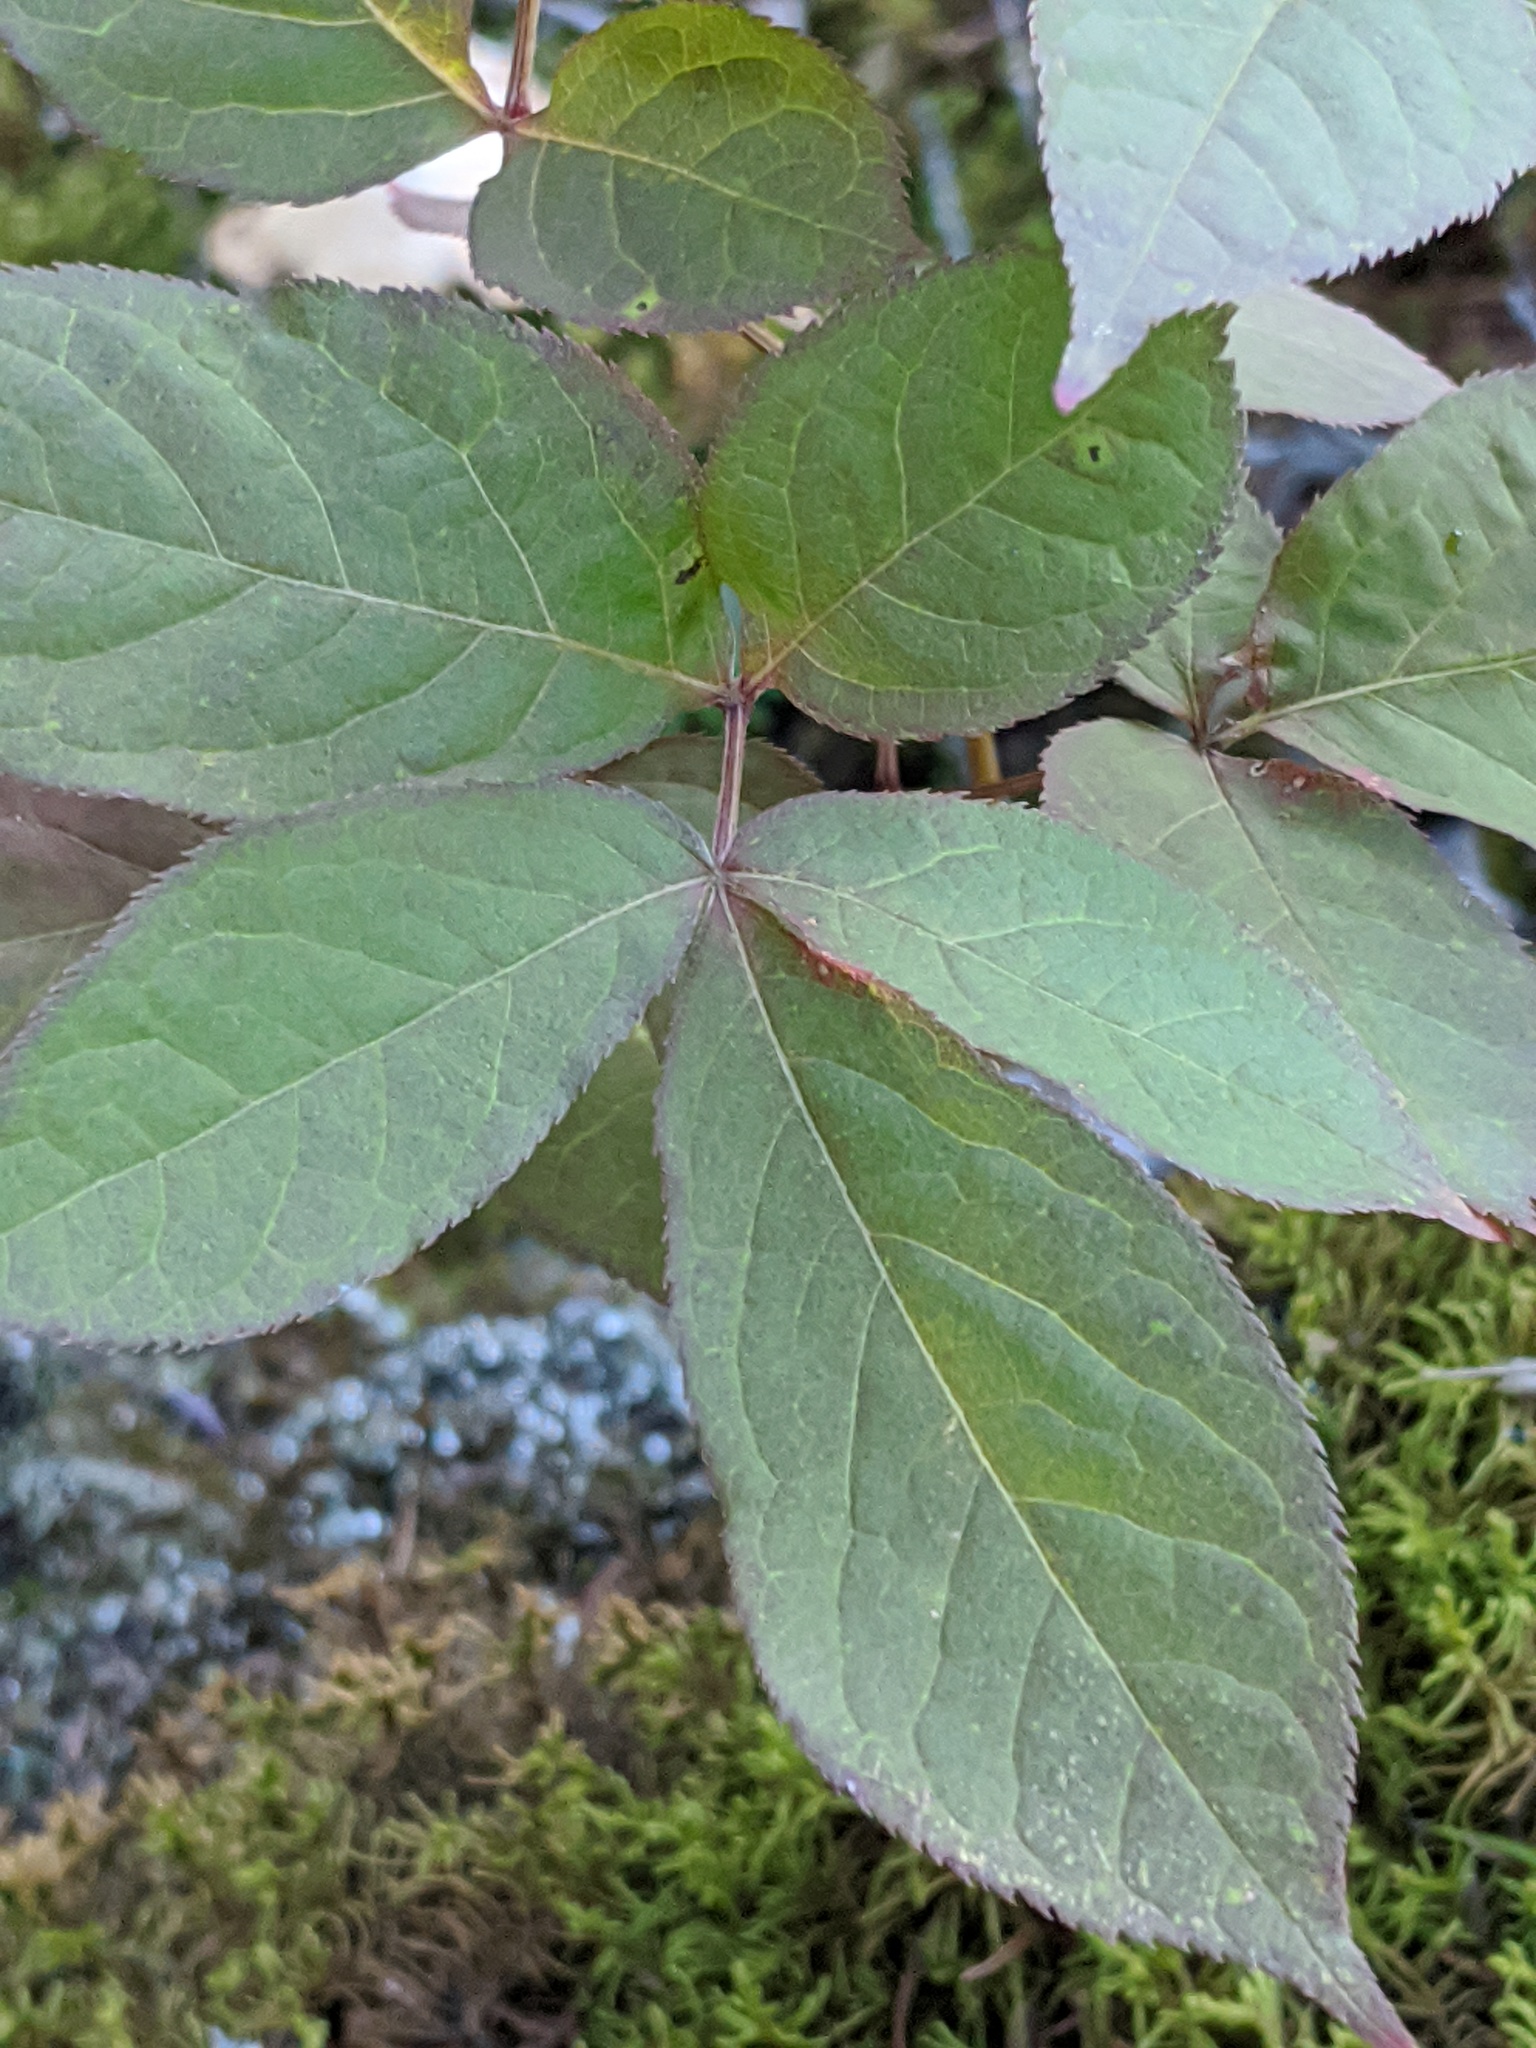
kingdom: Plantae
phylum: Tracheophyta
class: Magnoliopsida
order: Apiales
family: Araliaceae
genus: Aralia
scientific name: Aralia nudicaulis
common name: Wild sarsaparilla
